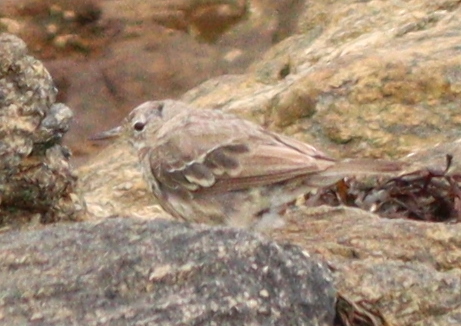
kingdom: Animalia
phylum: Chordata
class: Aves
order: Passeriformes
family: Motacillidae
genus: Anthus
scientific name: Anthus petrosus
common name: Eurasian rock pipit
